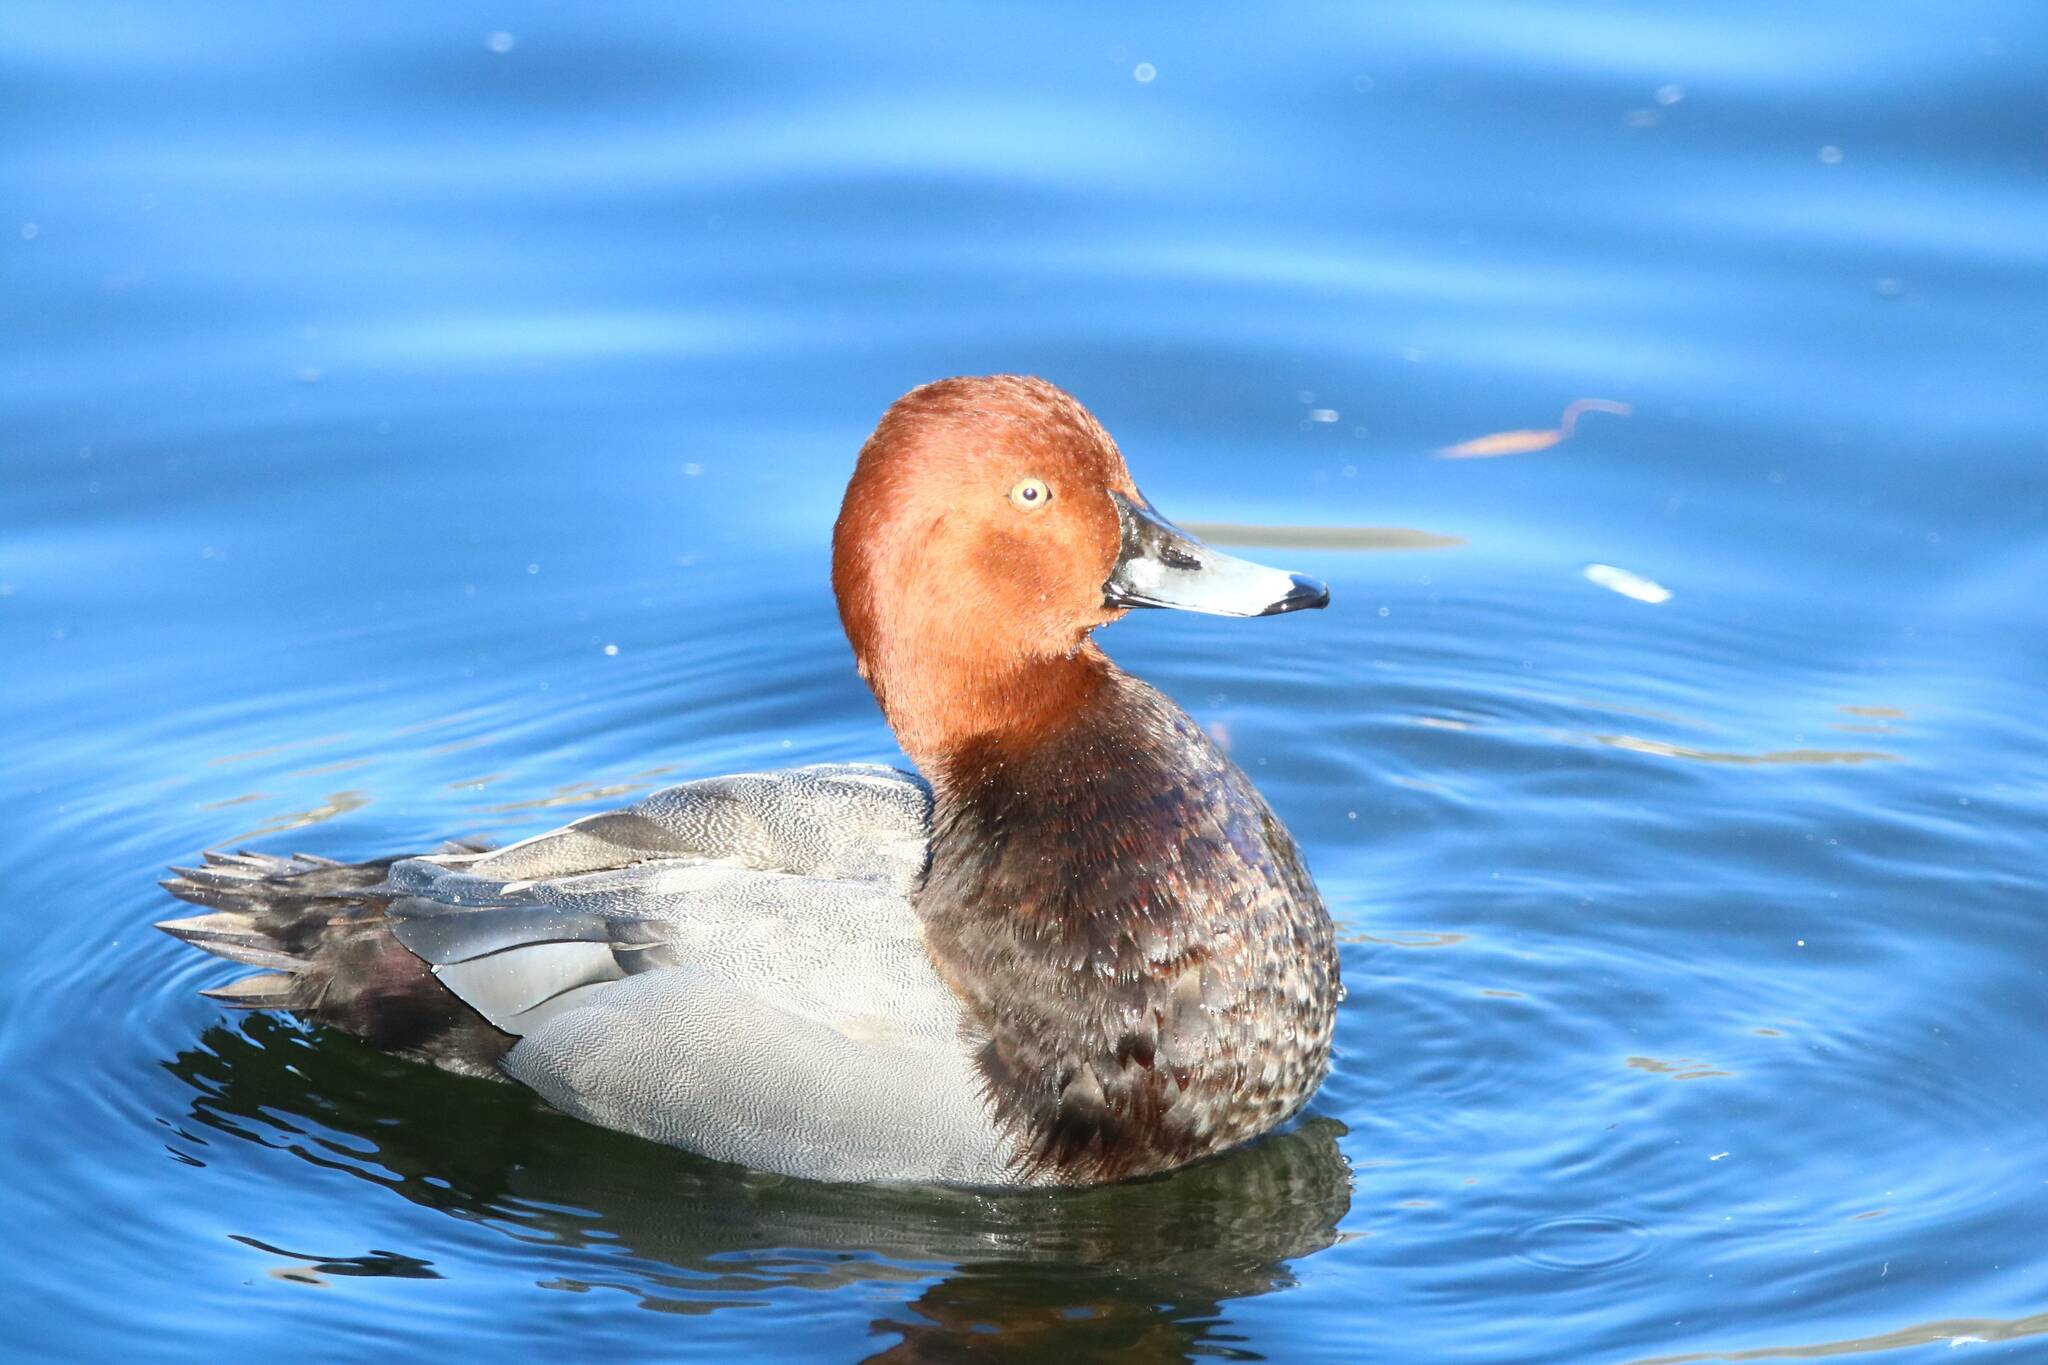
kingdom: Animalia
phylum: Chordata
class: Aves
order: Anseriformes
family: Anatidae
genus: Aythya
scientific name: Aythya ferina
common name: Common pochard
